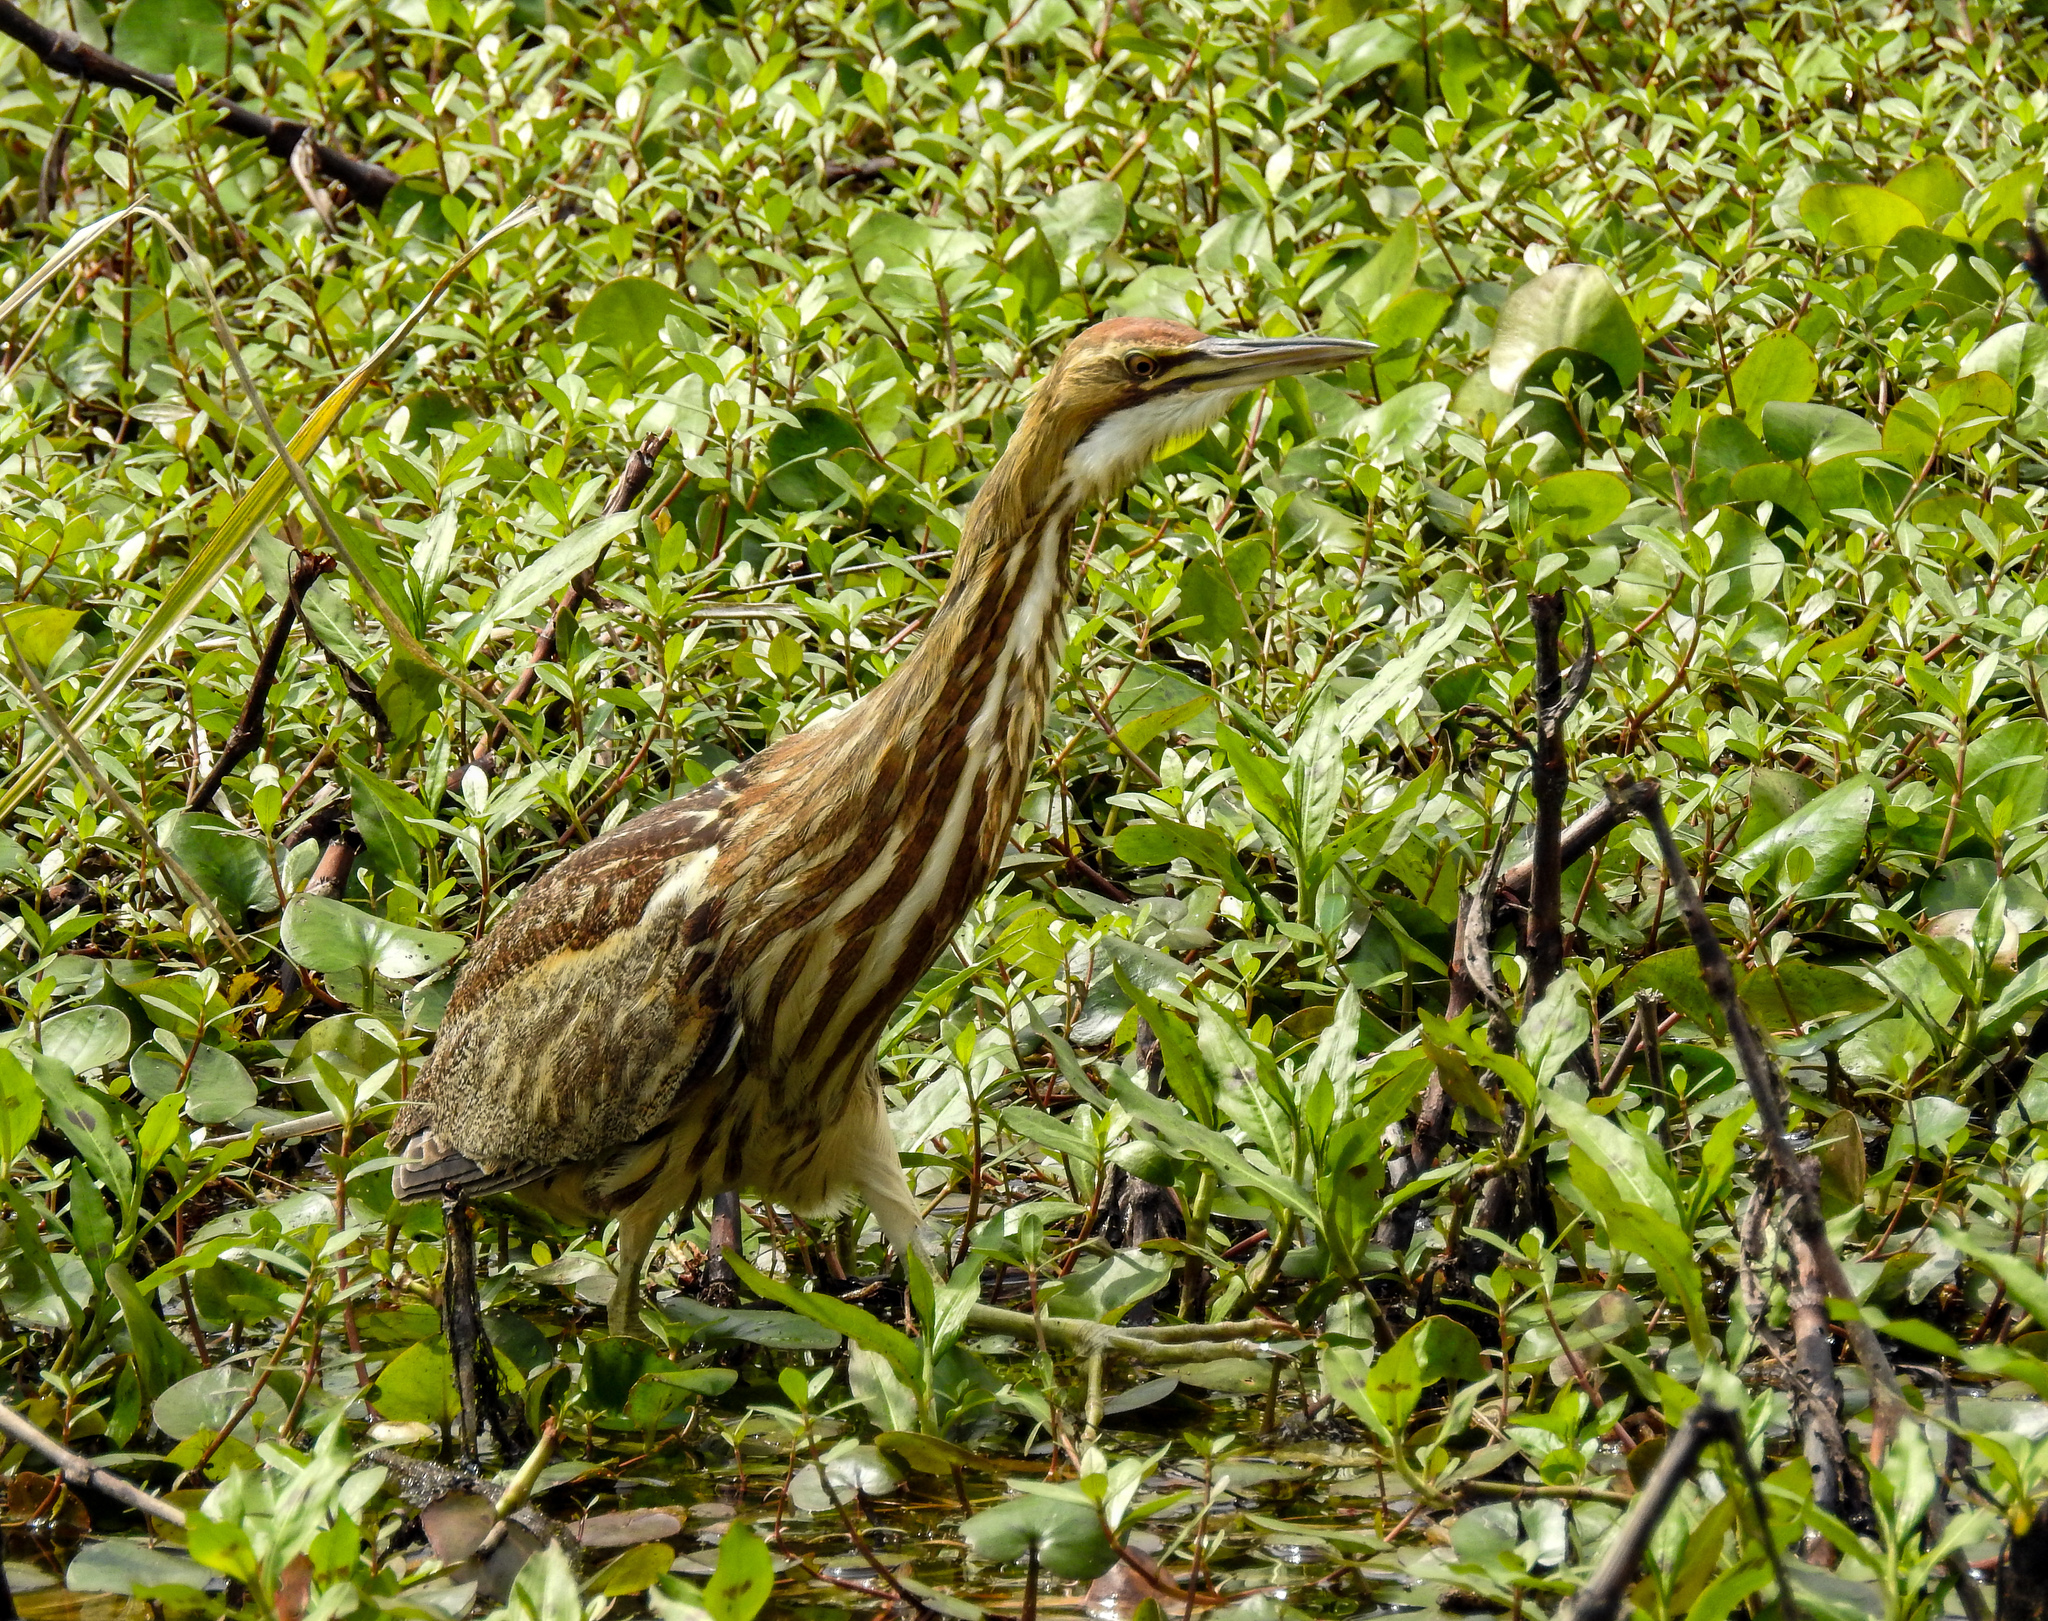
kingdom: Animalia
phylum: Chordata
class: Aves
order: Pelecaniformes
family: Ardeidae
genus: Botaurus
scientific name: Botaurus lentiginosus
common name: American bittern
